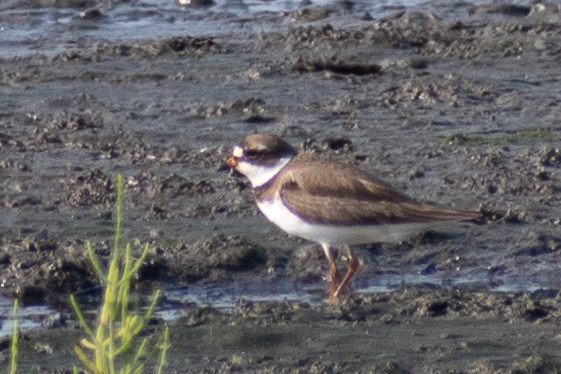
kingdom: Animalia
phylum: Chordata
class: Aves
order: Charadriiformes
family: Charadriidae
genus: Charadrius
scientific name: Charadrius semipalmatus
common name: Semipalmated plover
